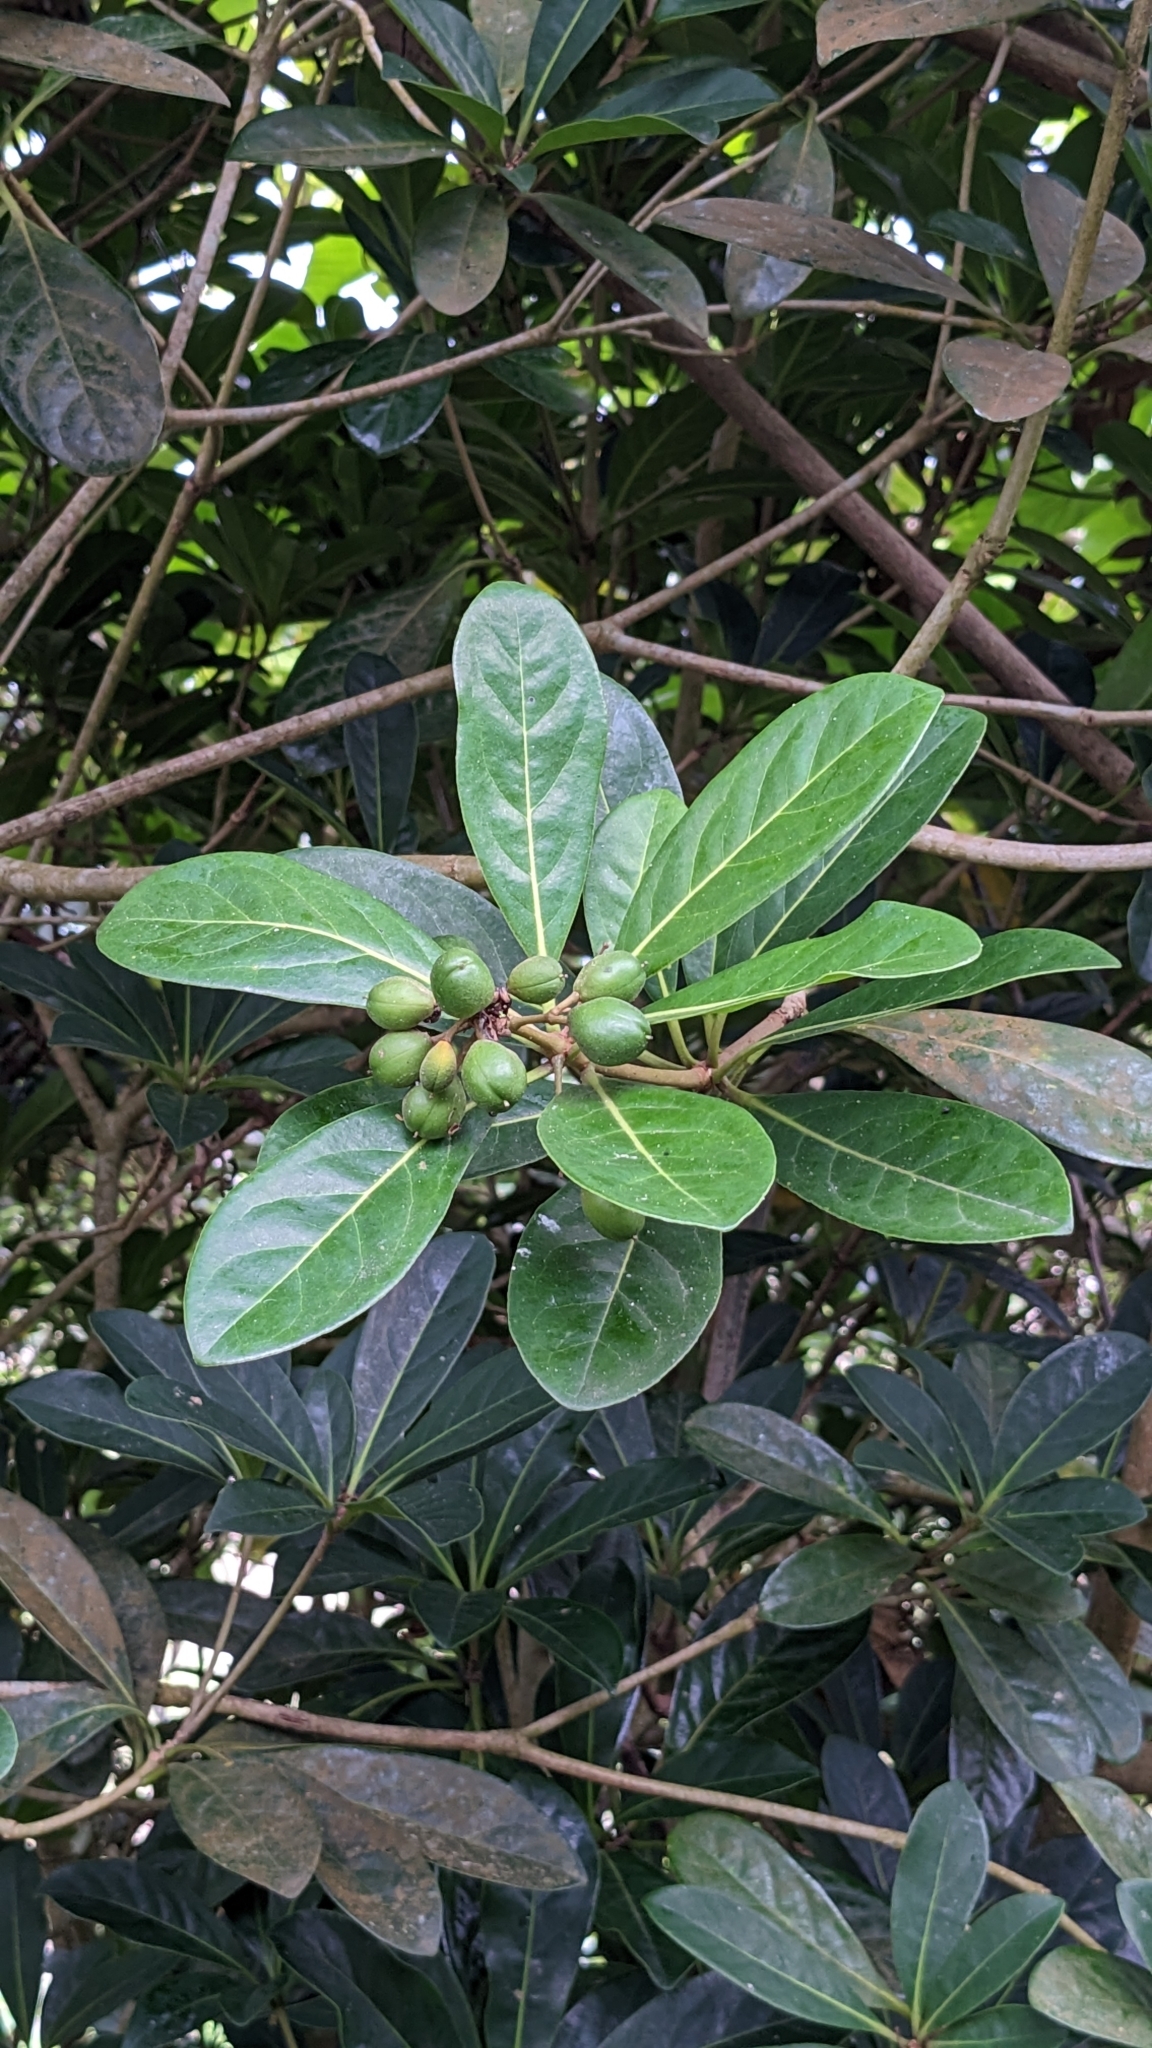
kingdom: Plantae
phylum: Tracheophyta
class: Magnoliopsida
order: Apiales
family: Pittosporaceae
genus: Pittosporum
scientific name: Pittosporum moluccanum
